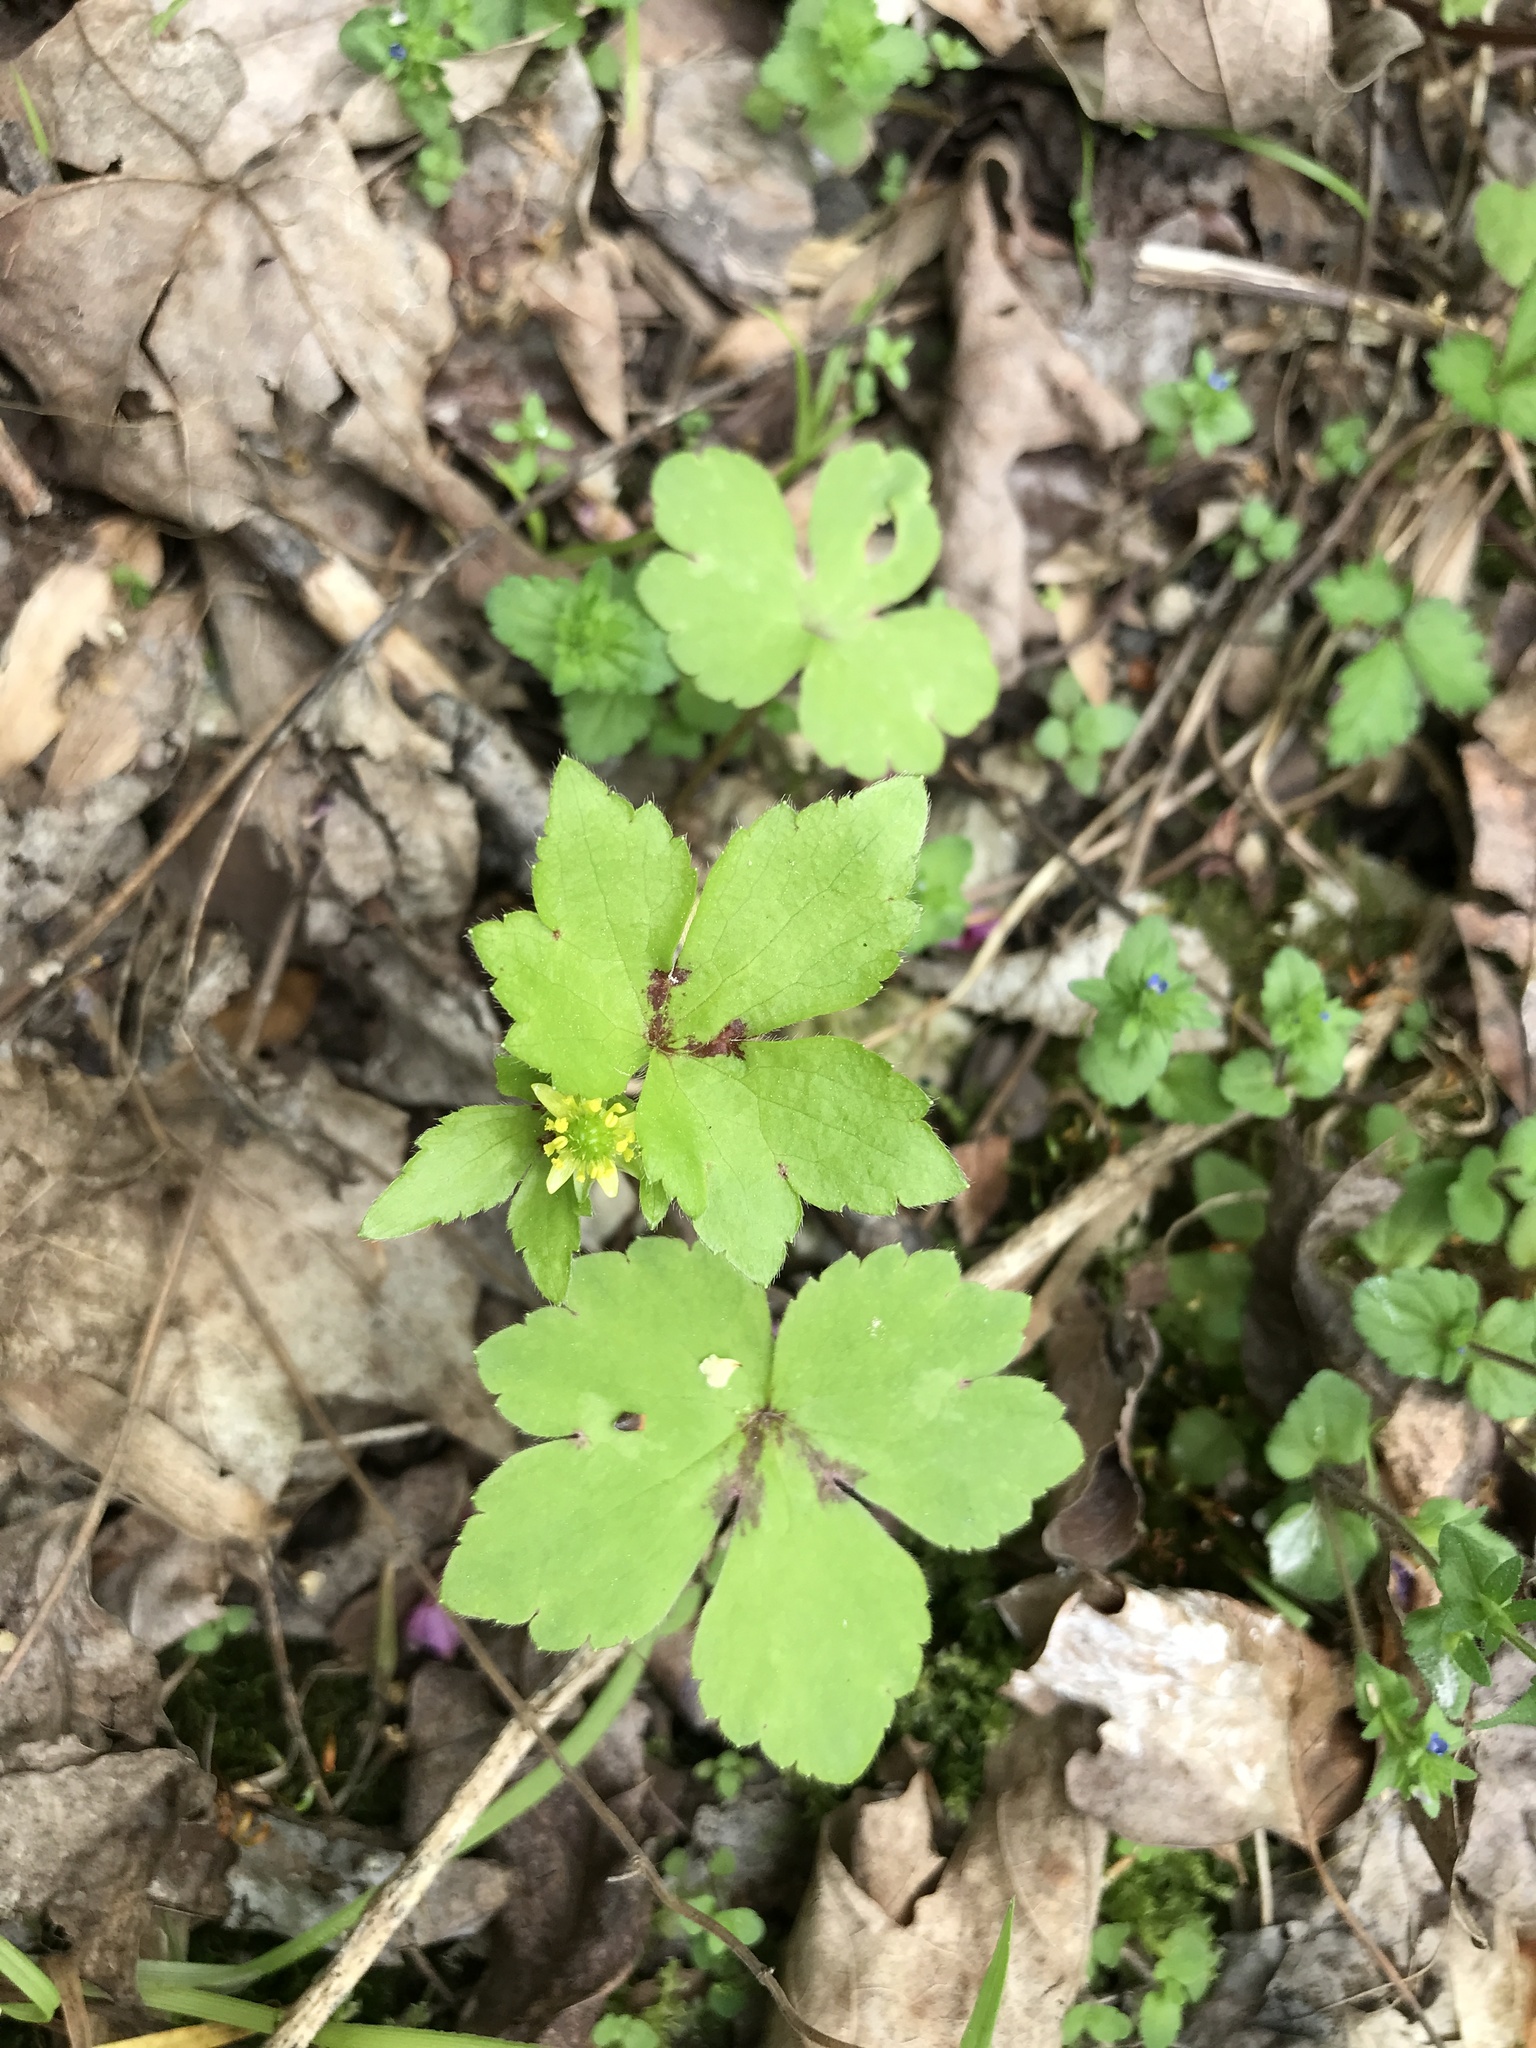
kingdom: Plantae
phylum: Tracheophyta
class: Magnoliopsida
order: Ranunculales
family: Ranunculaceae
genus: Ranunculus
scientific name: Ranunculus recurvatus
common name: Blisterwort
